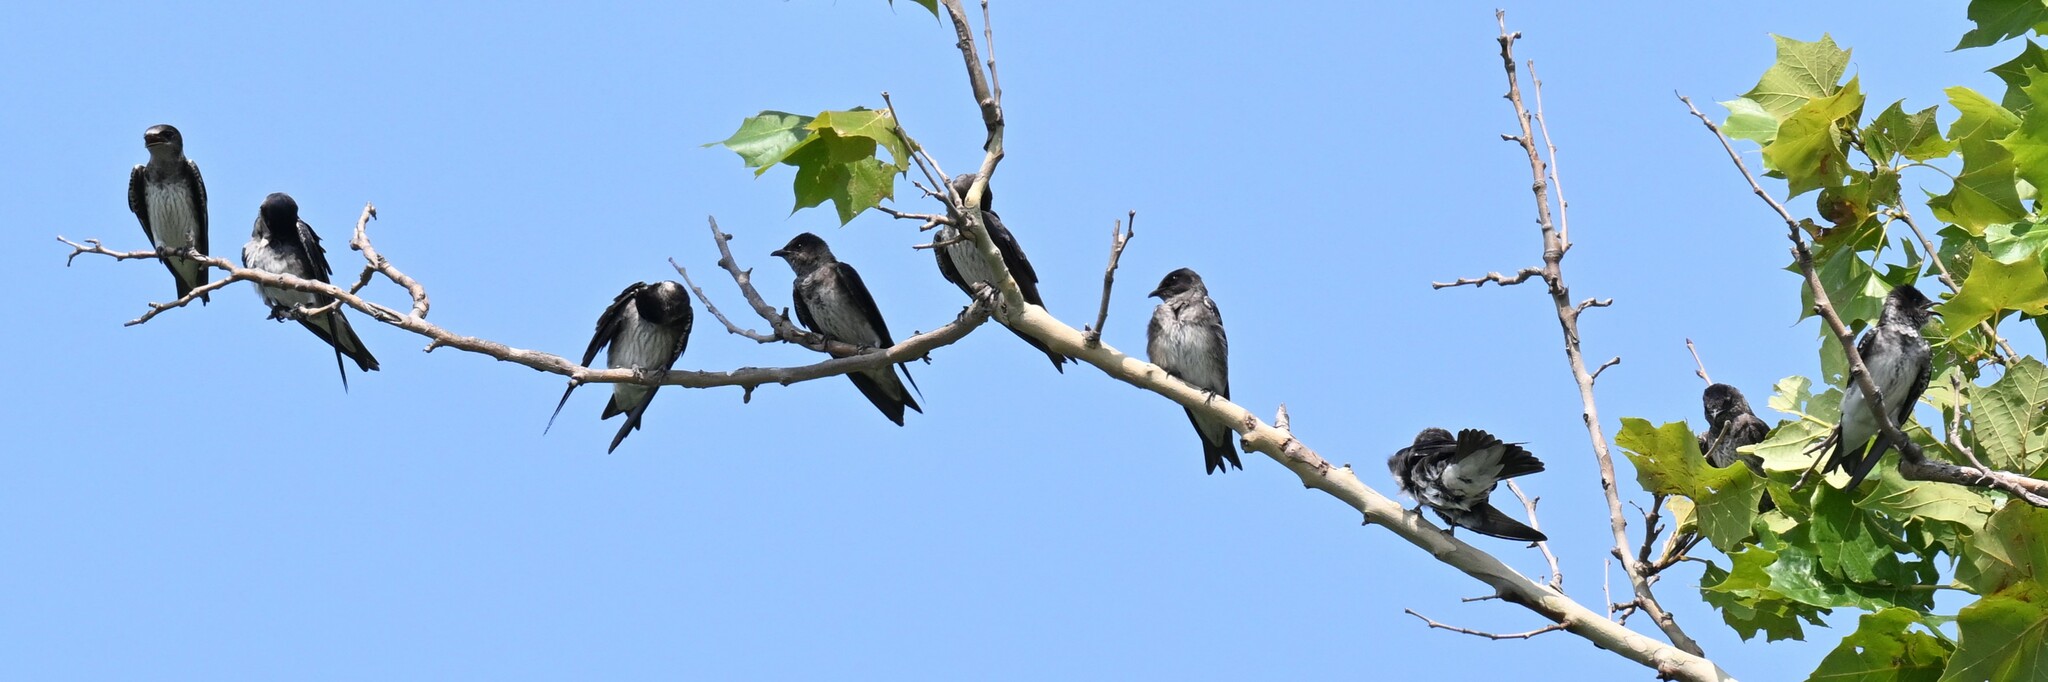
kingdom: Animalia
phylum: Chordata
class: Aves
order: Passeriformes
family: Hirundinidae
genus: Progne
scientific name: Progne subis
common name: Purple martin
